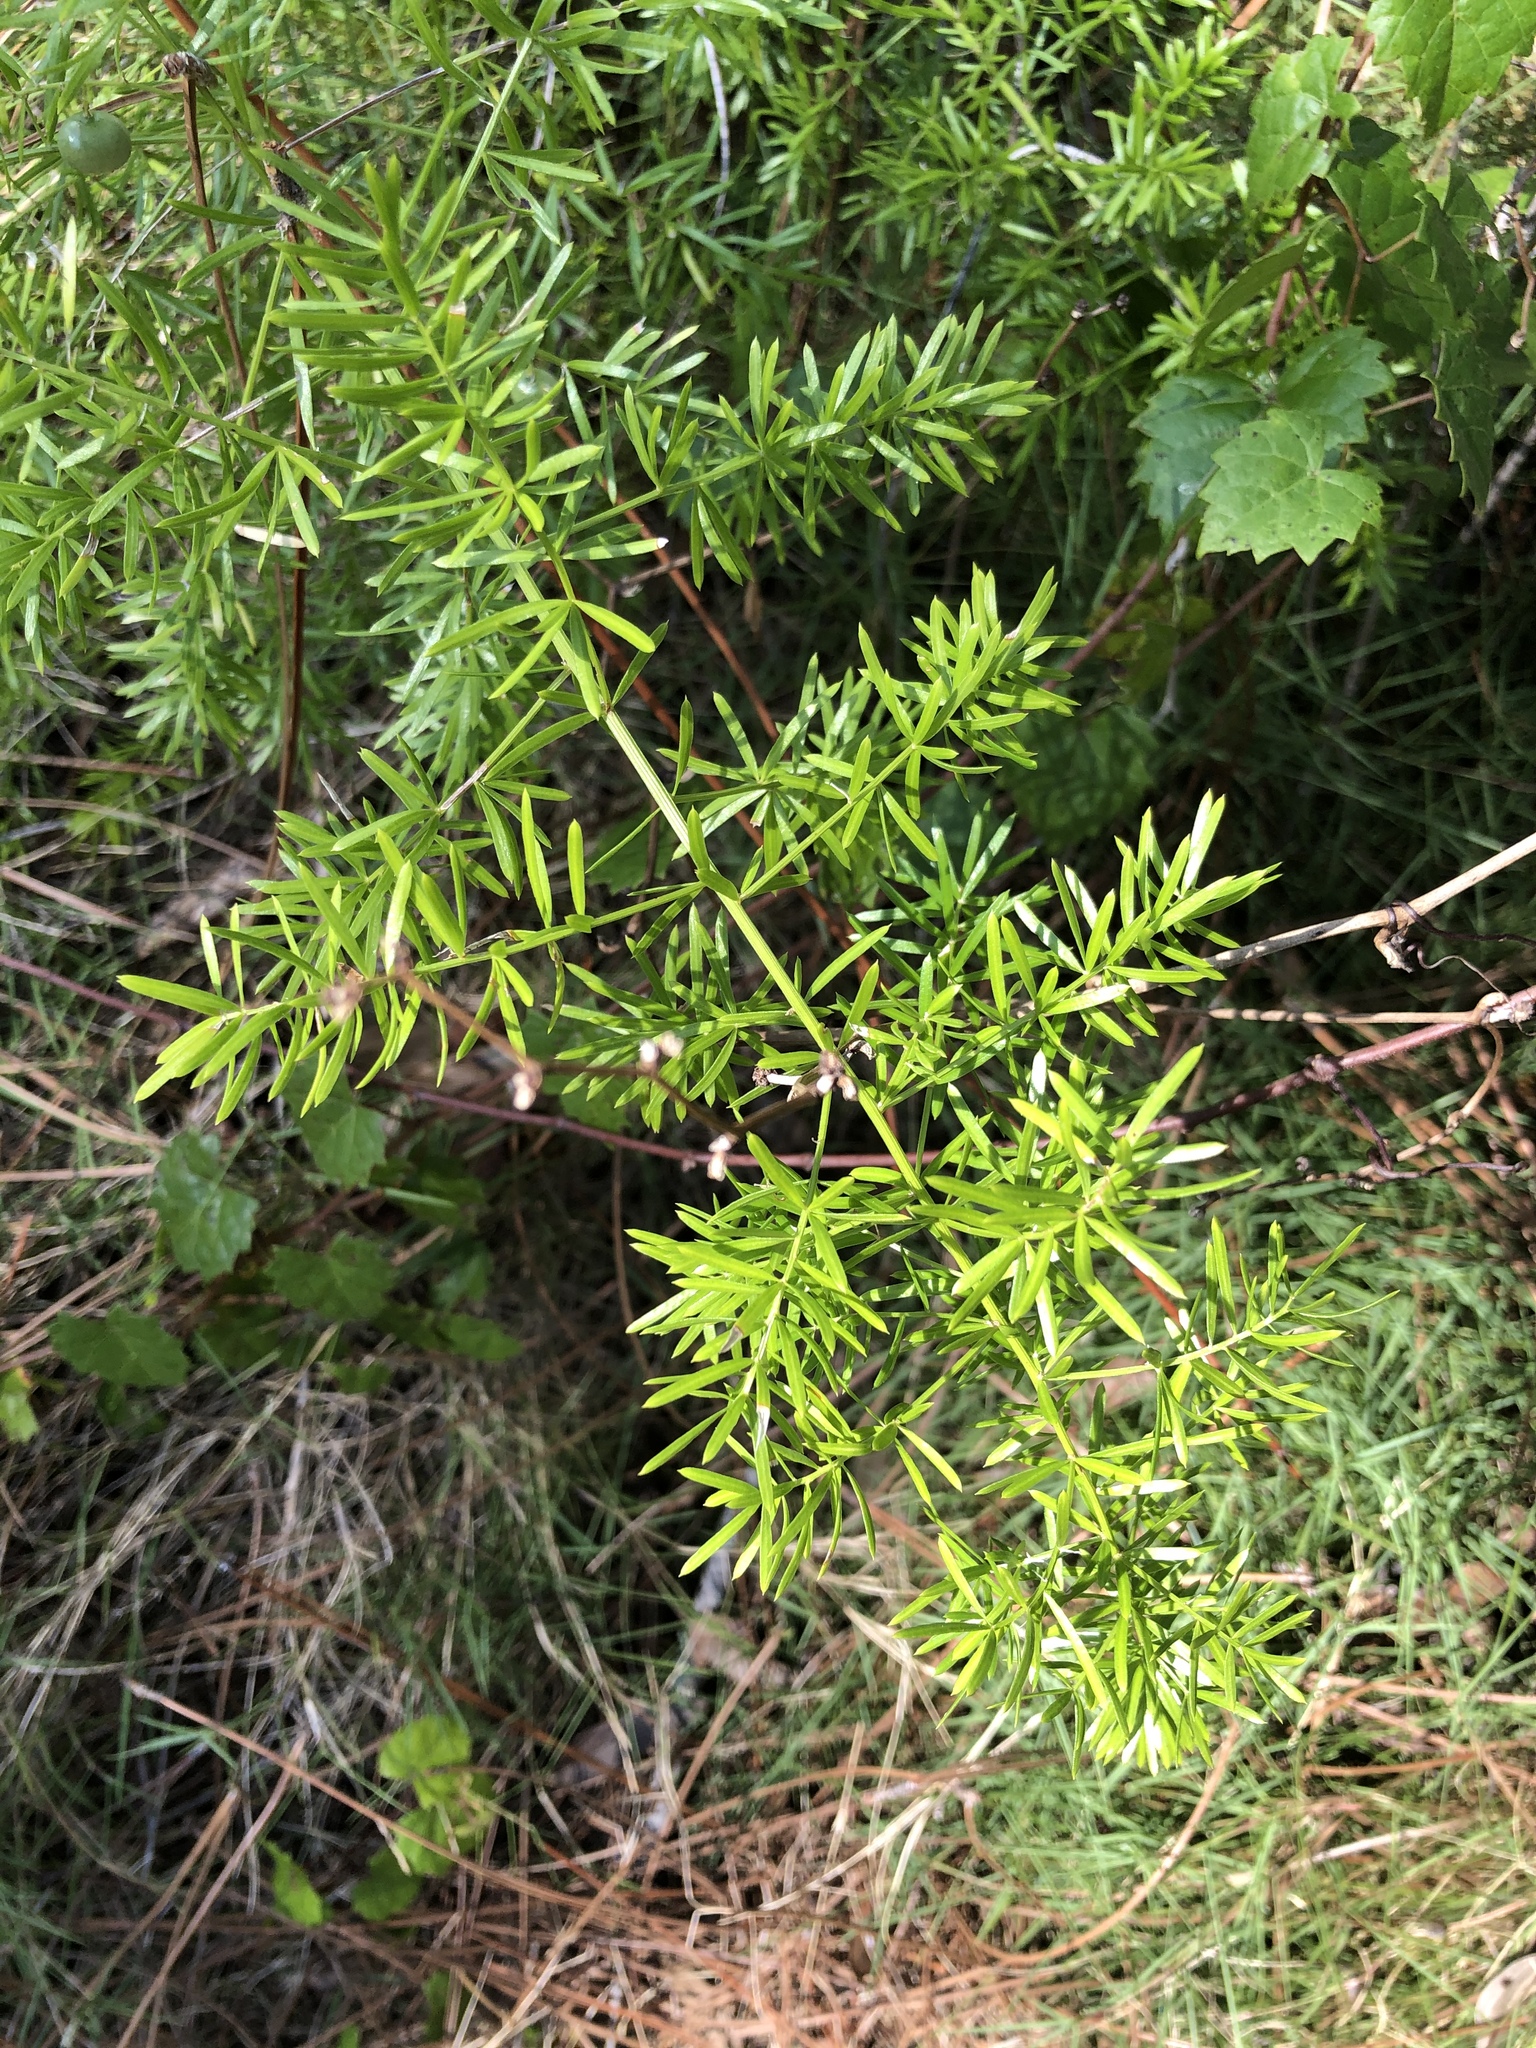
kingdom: Plantae
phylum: Tracheophyta
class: Liliopsida
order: Asparagales
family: Asparagaceae
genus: Asparagus
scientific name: Asparagus aethiopicus
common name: Sprenger's asparagus fern
